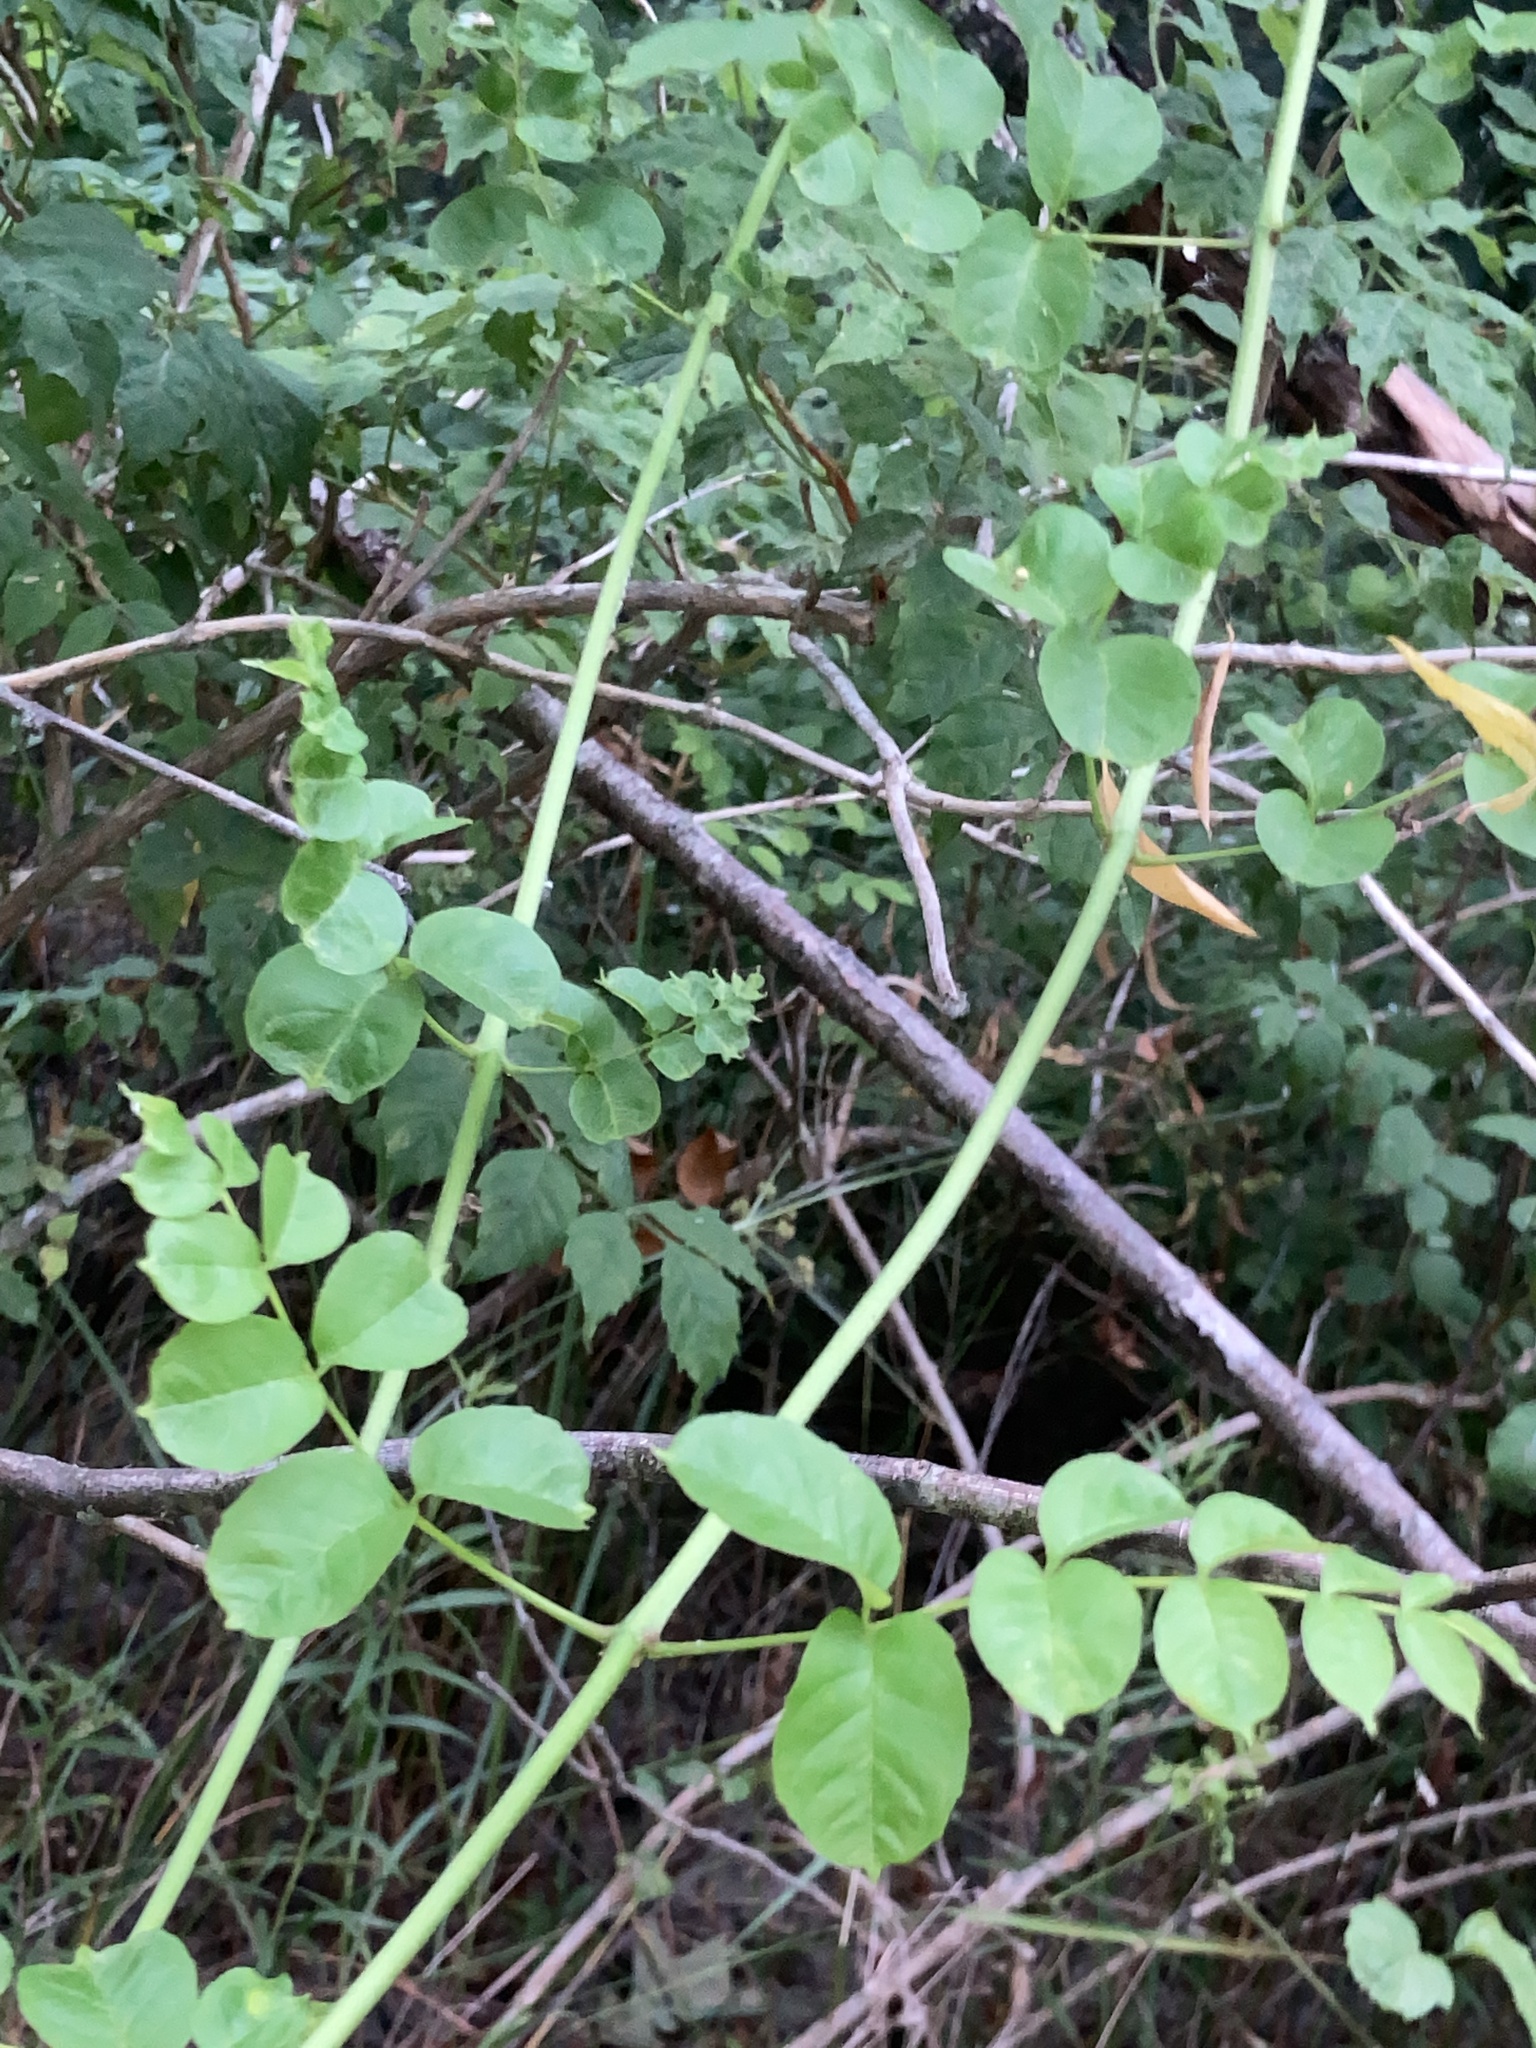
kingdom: Plantae
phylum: Tracheophyta
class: Magnoliopsida
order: Lamiales
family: Bignoniaceae
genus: Campsis
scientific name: Campsis radicans
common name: Trumpet-creeper
